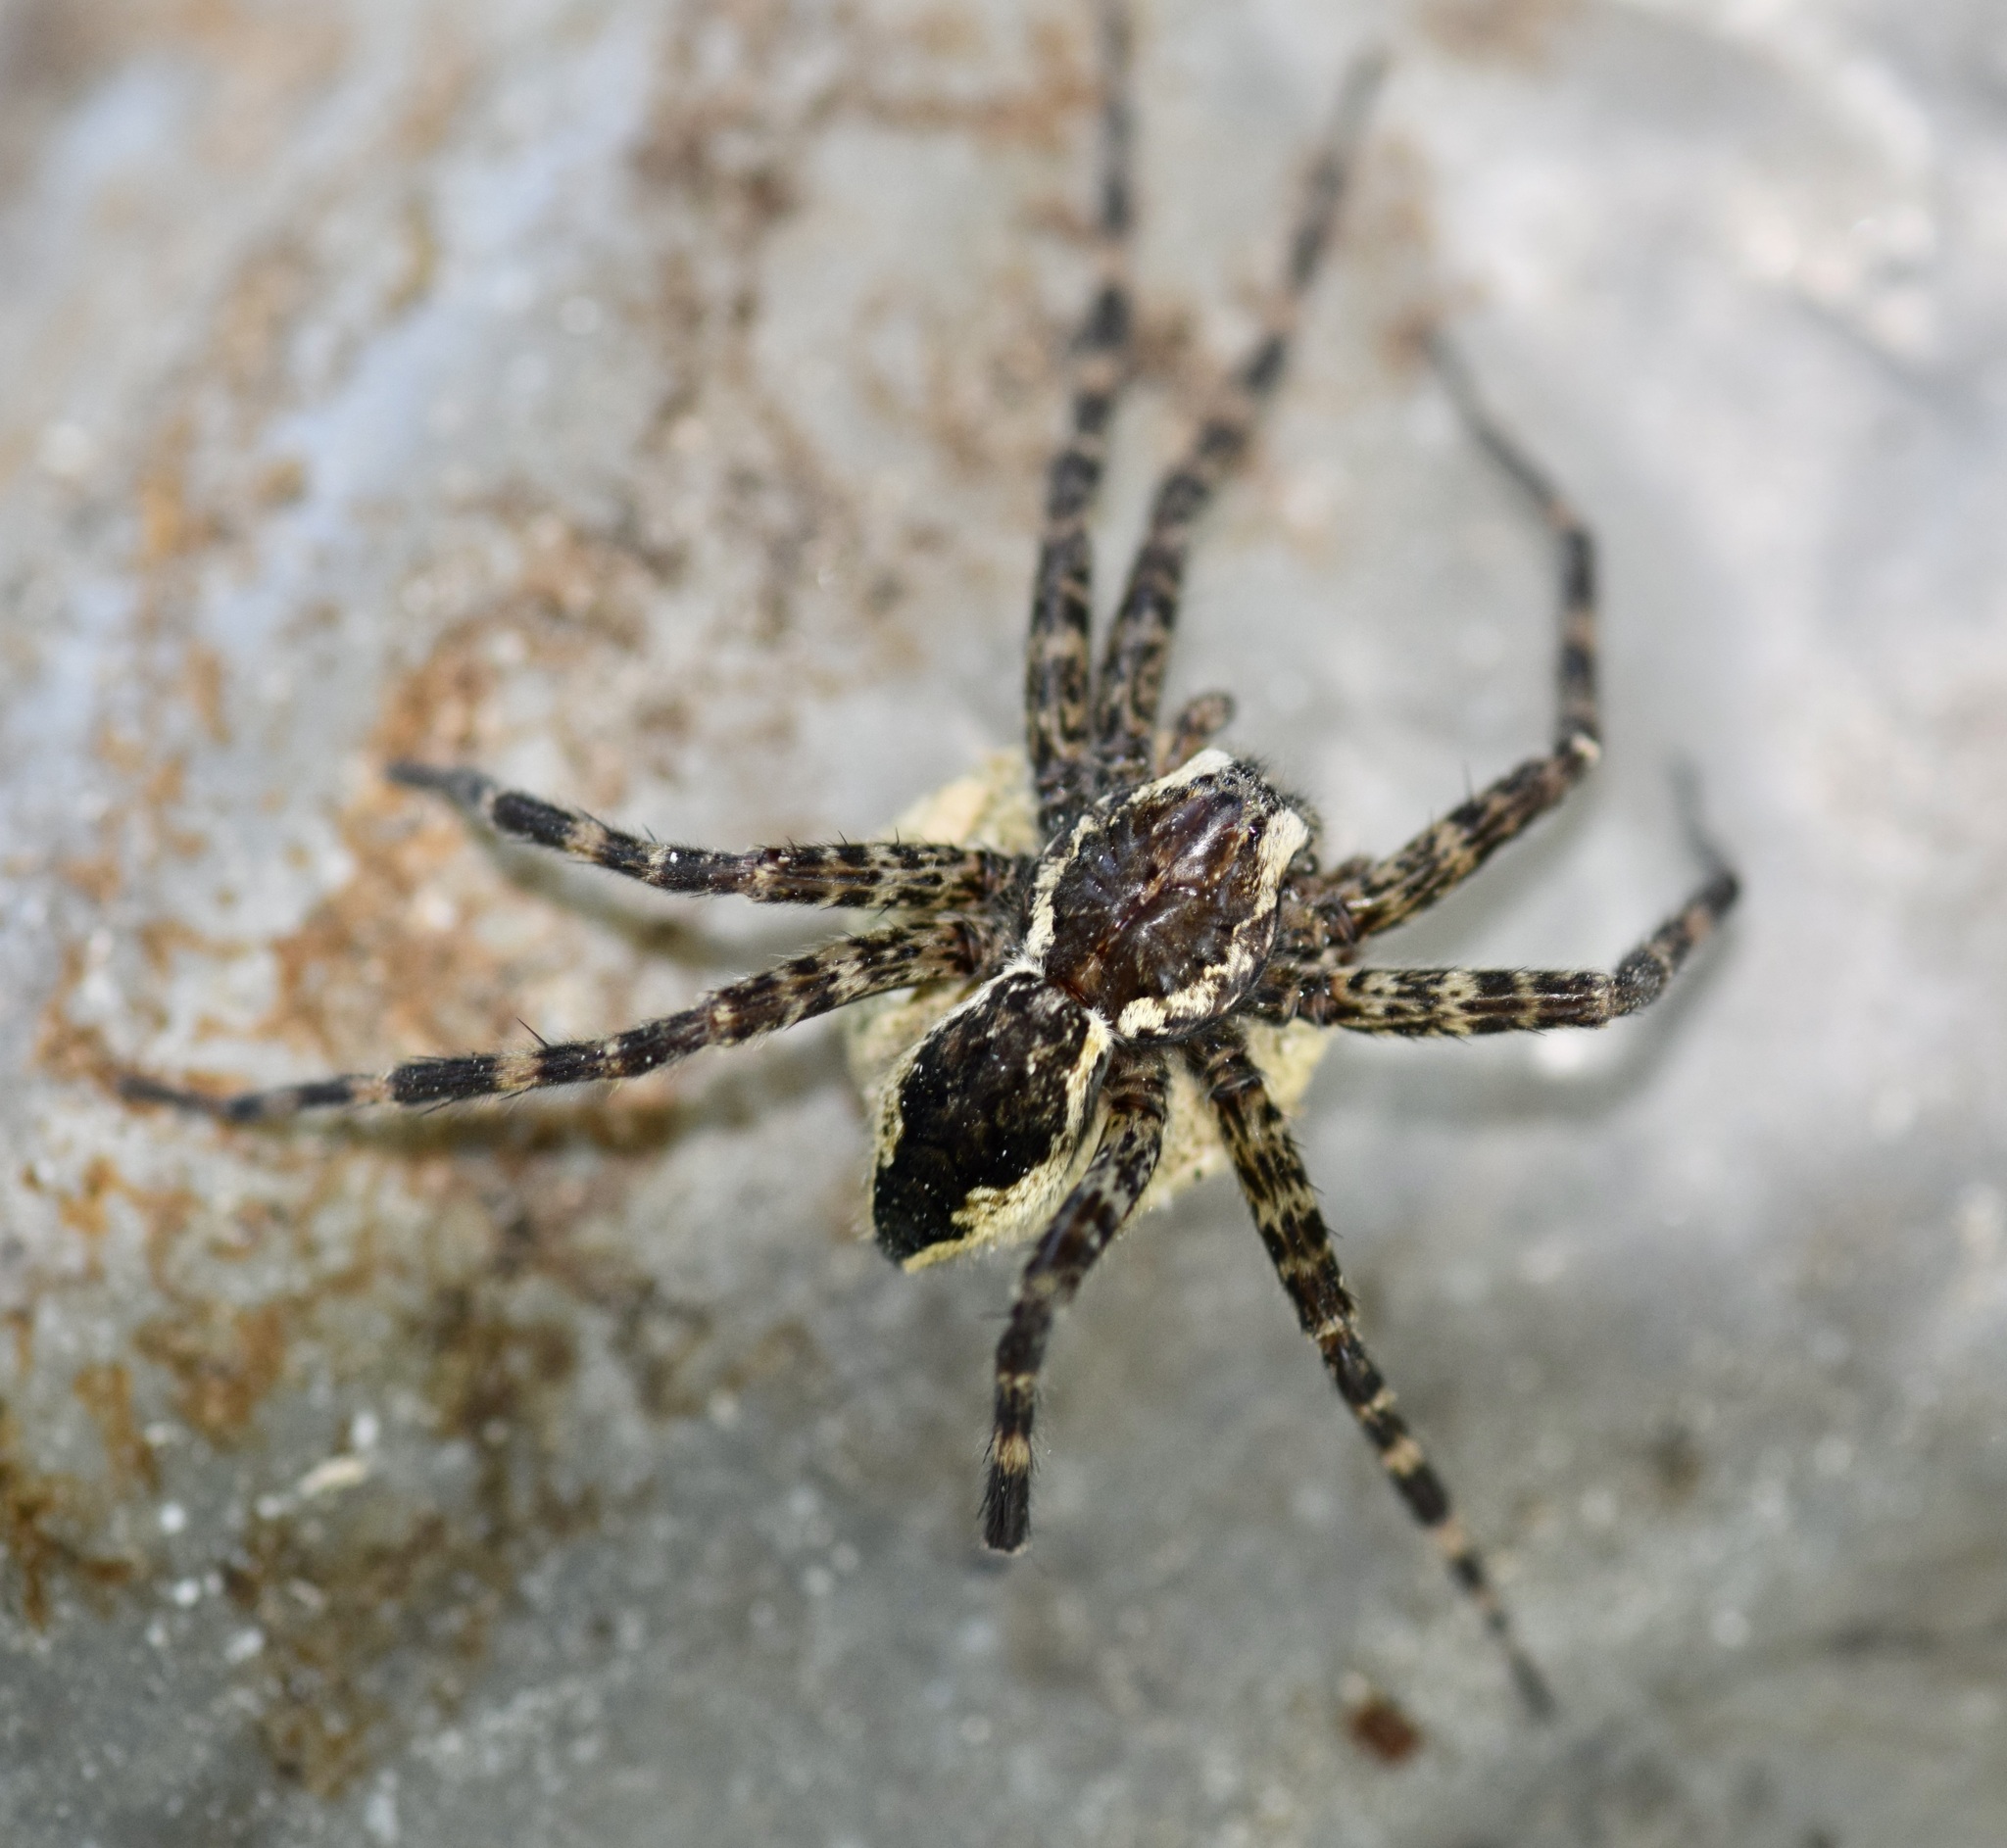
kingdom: Animalia
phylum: Arthropoda
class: Arachnida
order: Araneae
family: Pisauridae
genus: Dolomedes
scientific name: Dolomedes tenebrosus
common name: Dark fishing spider
